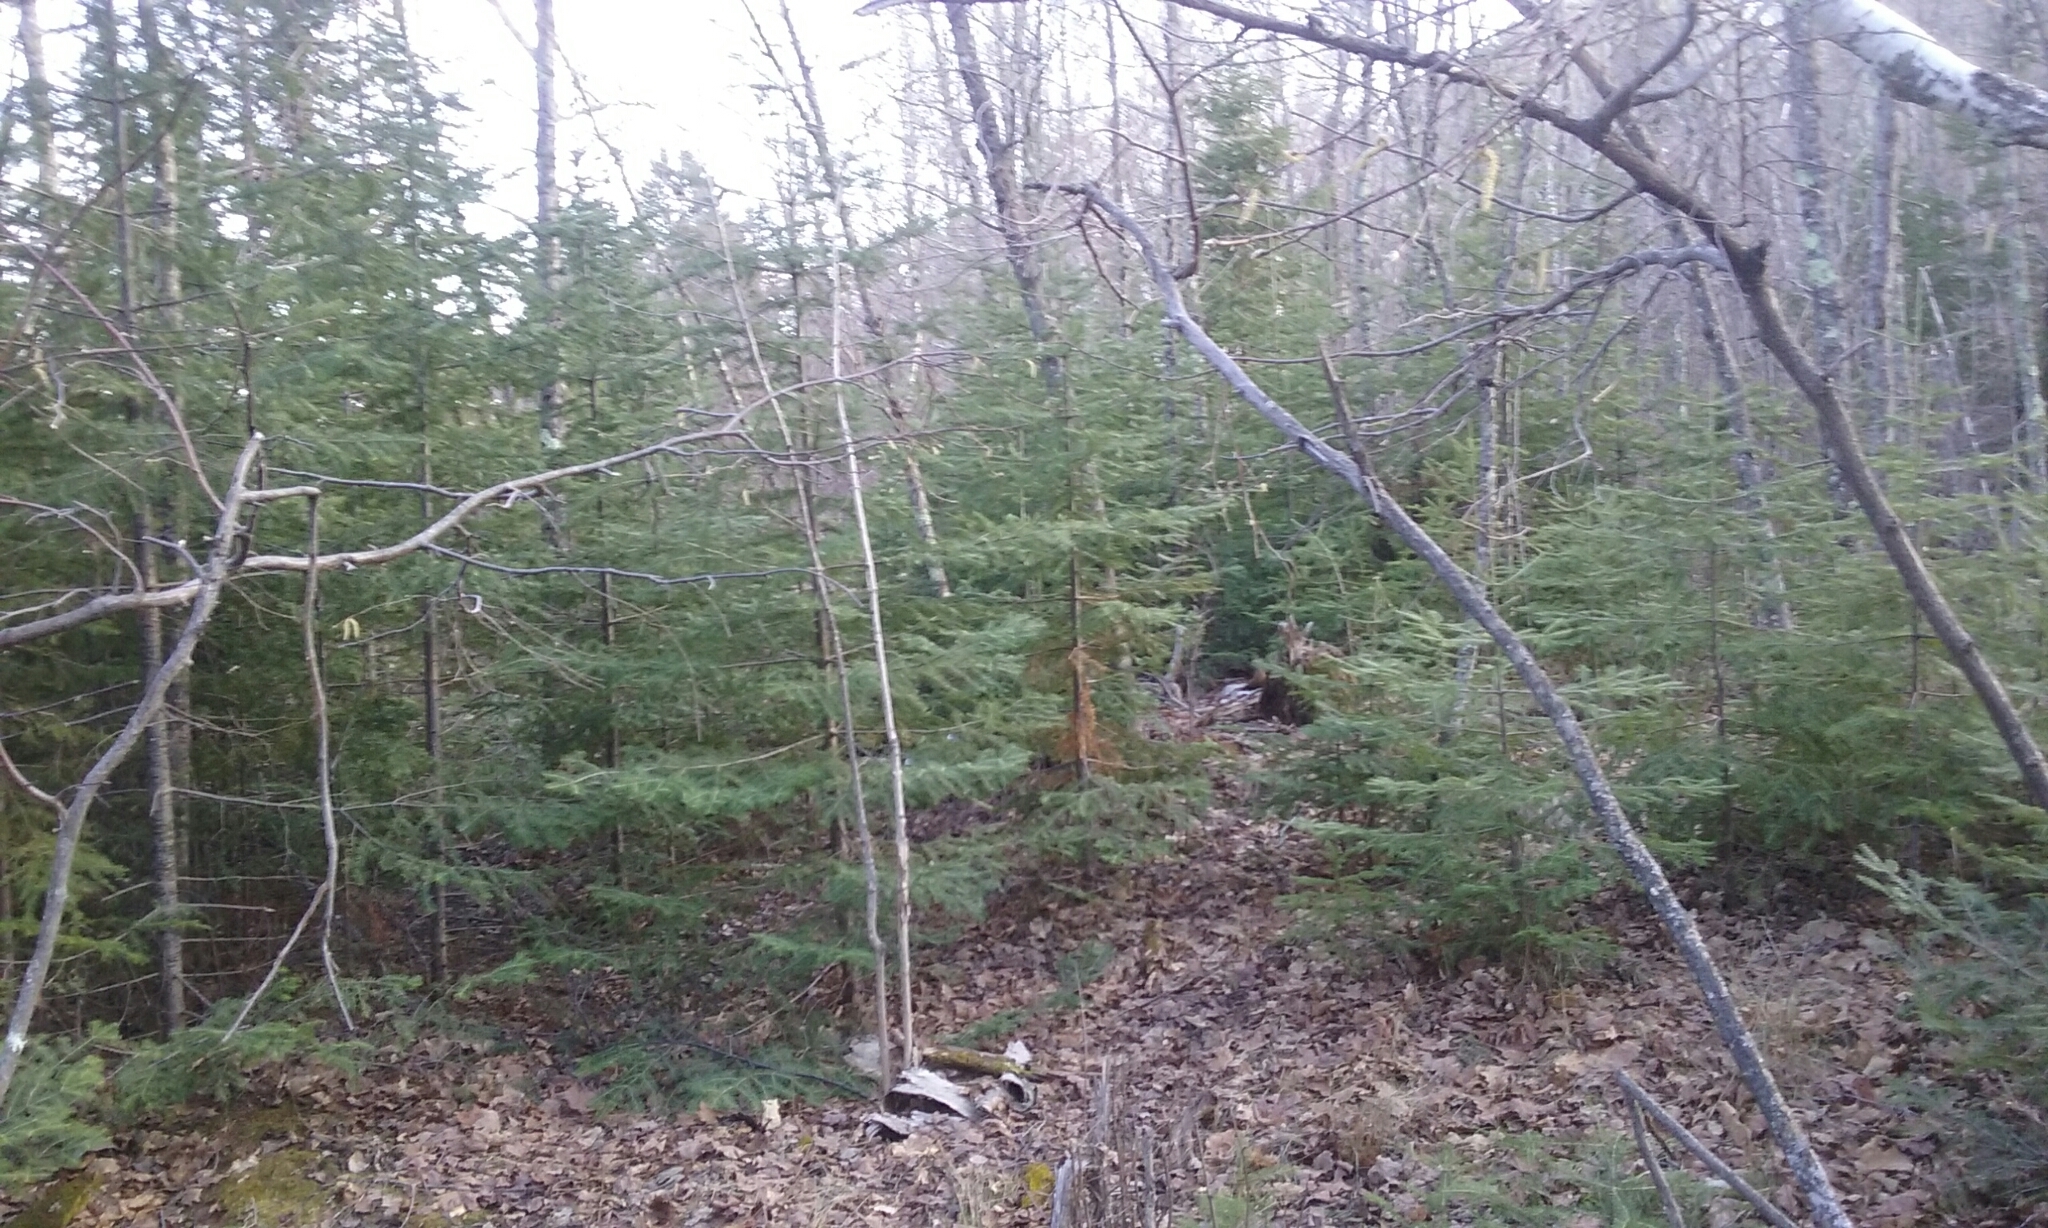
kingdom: Plantae
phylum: Tracheophyta
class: Pinopsida
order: Pinales
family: Pinaceae
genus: Abies
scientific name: Abies balsamea
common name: Balsam fir
